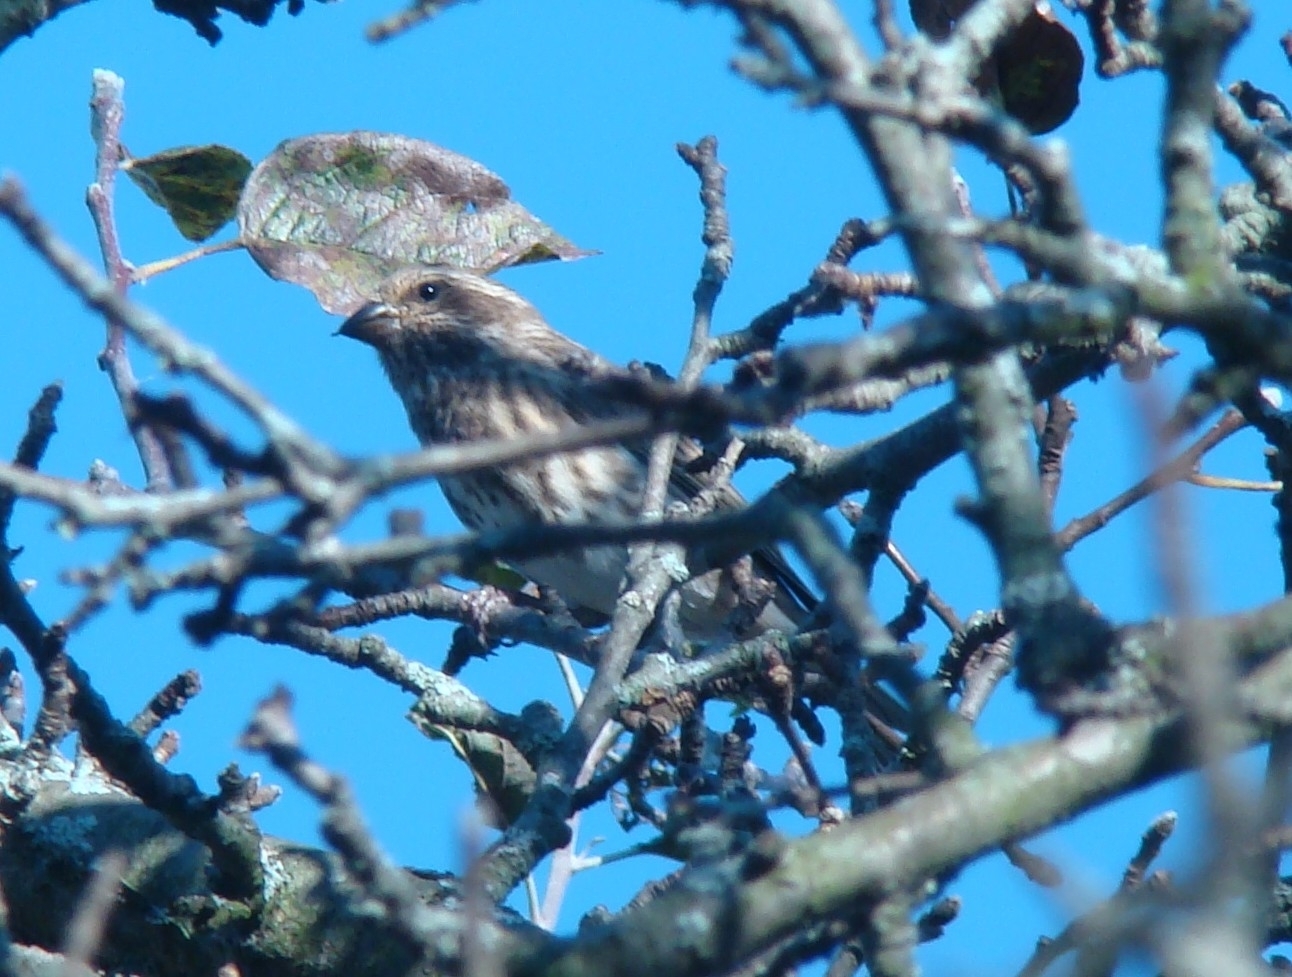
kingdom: Animalia
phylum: Chordata
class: Aves
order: Passeriformes
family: Fringillidae
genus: Haemorhous
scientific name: Haemorhous purpureus
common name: Purple finch
